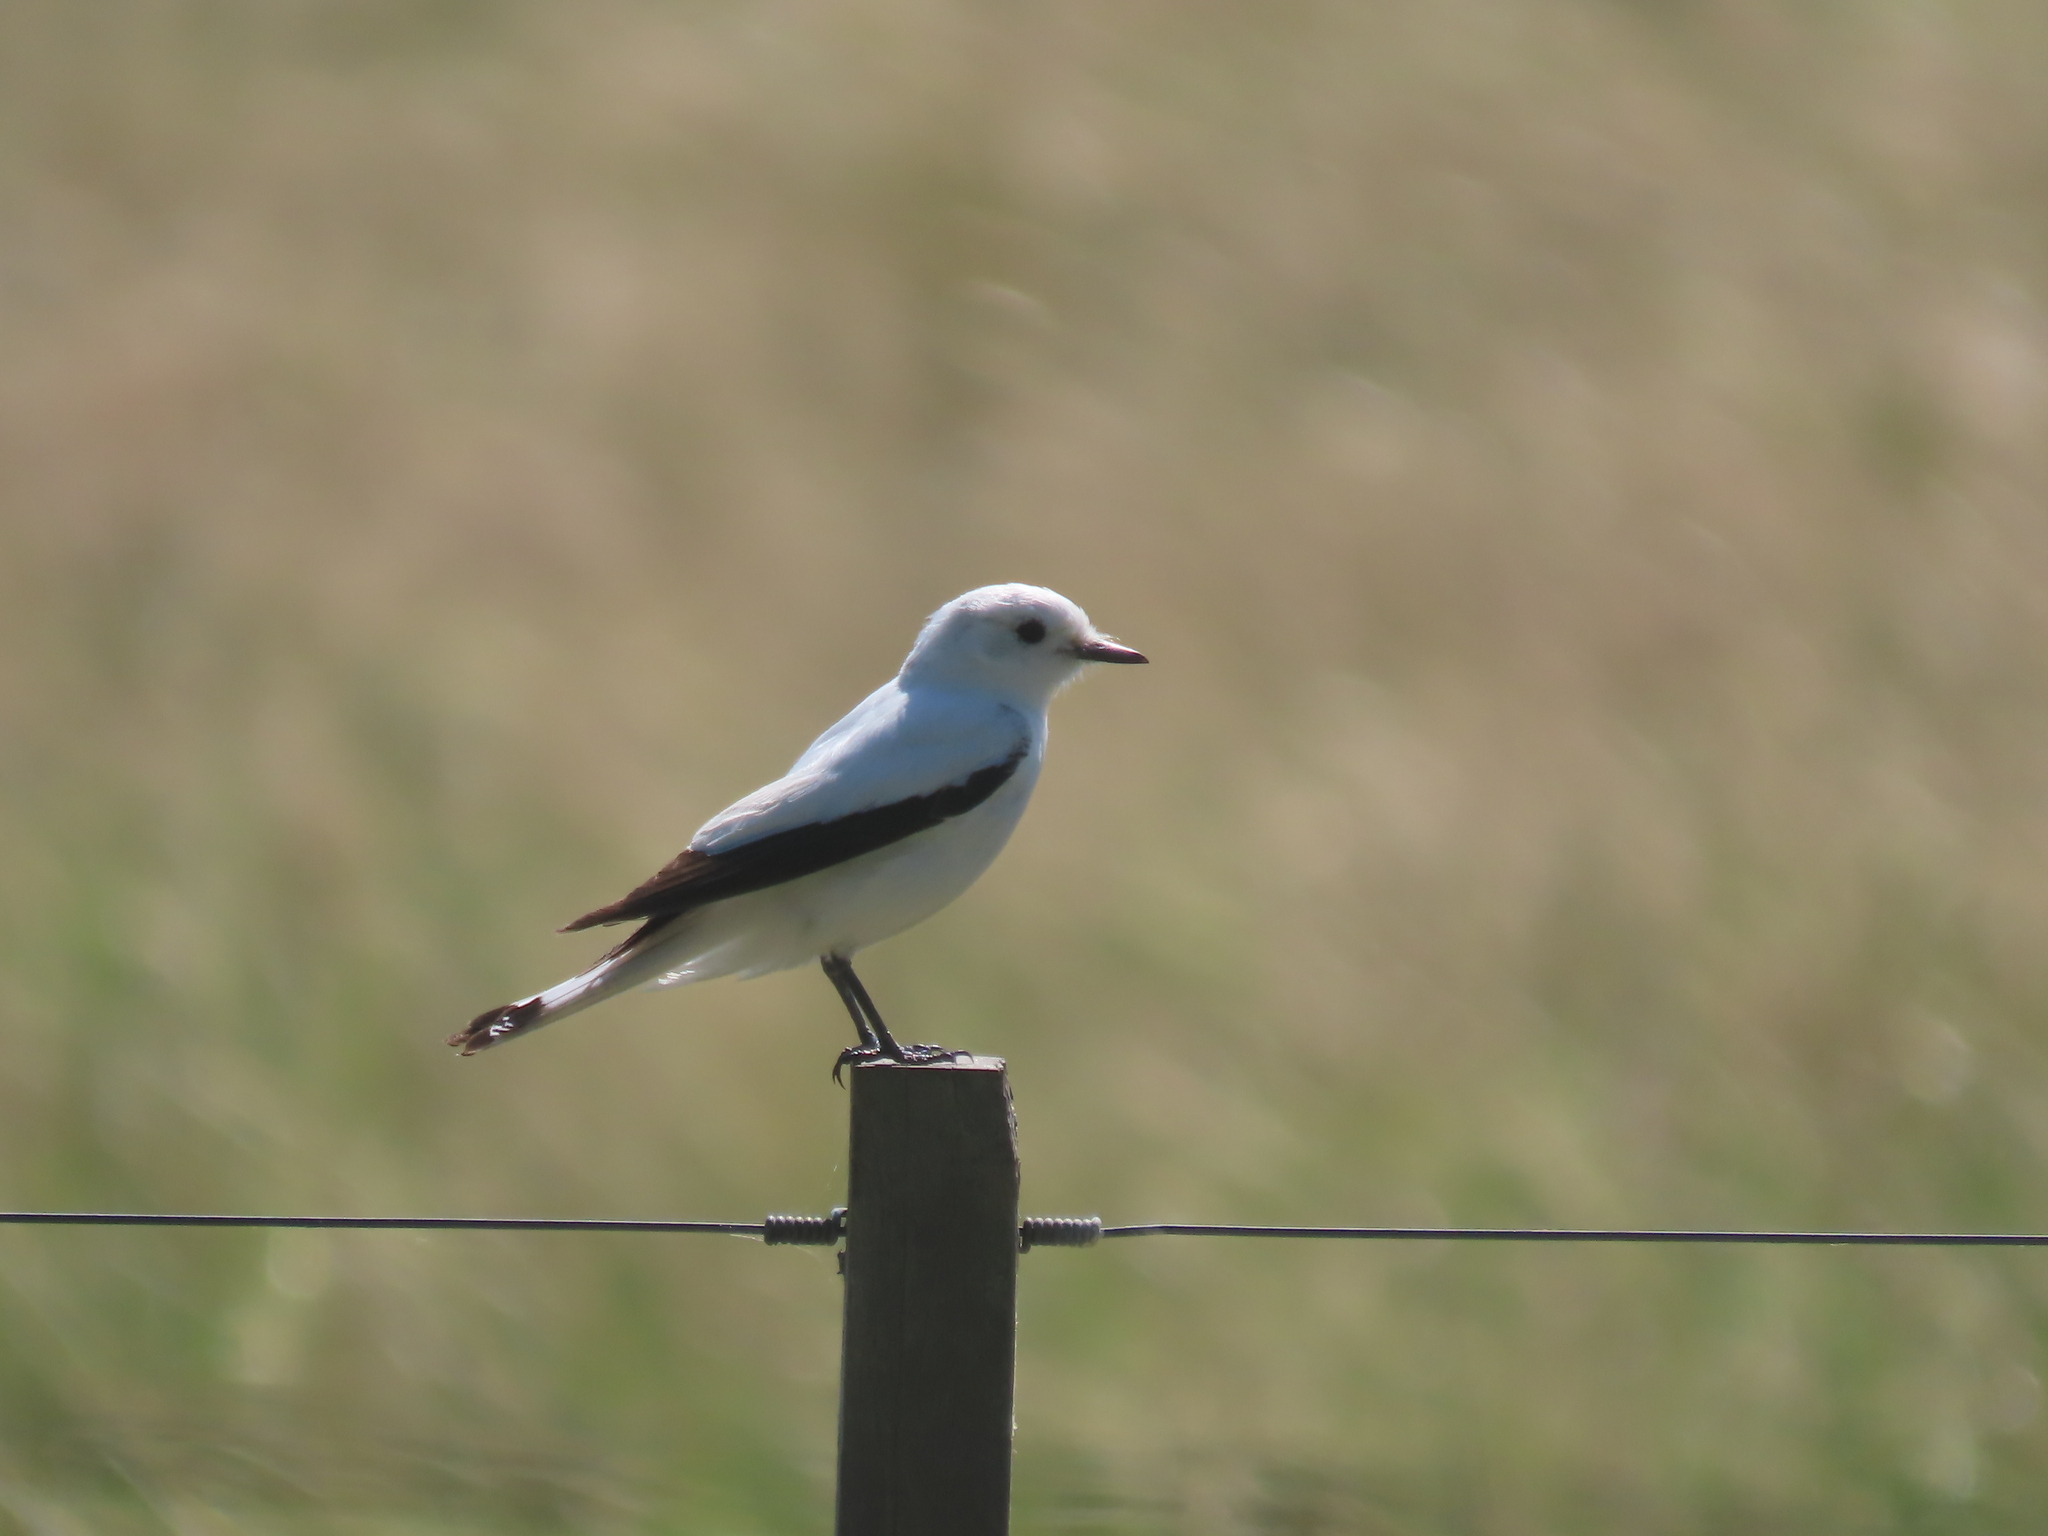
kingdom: Animalia
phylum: Chordata
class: Aves
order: Passeriformes
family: Tyrannidae
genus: Xolmis
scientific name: Xolmis irupero
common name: White monjita
